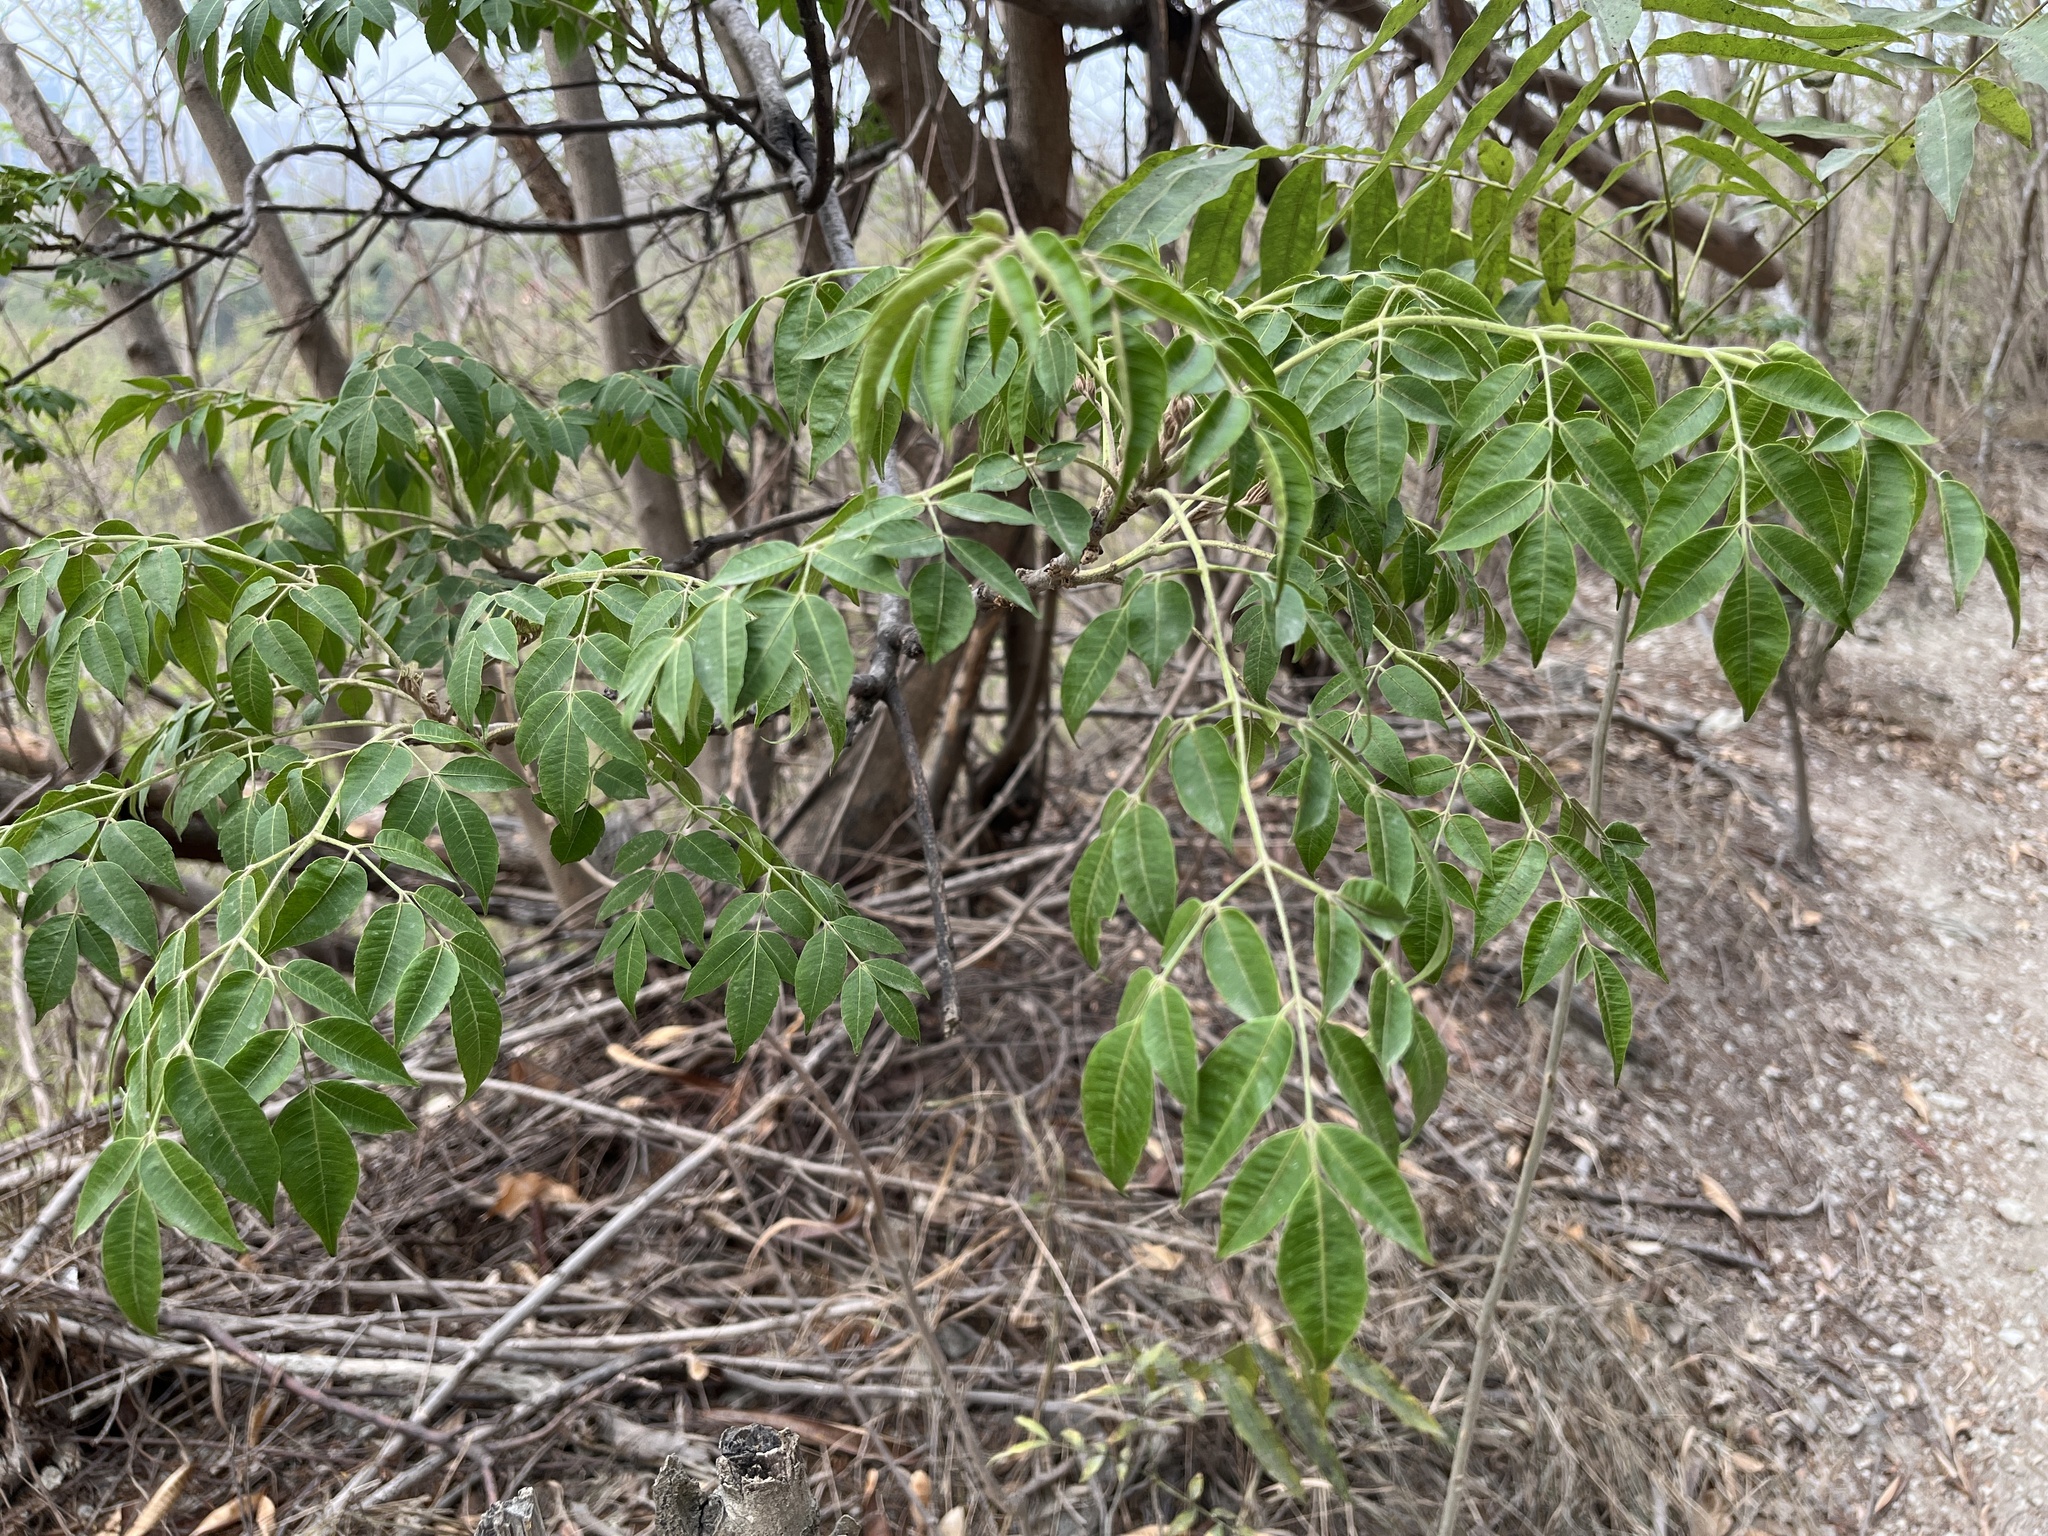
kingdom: Plantae
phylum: Tracheophyta
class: Magnoliopsida
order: Sapindales
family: Meliaceae
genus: Melia
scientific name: Melia azedarach
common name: Chinaberrytree
